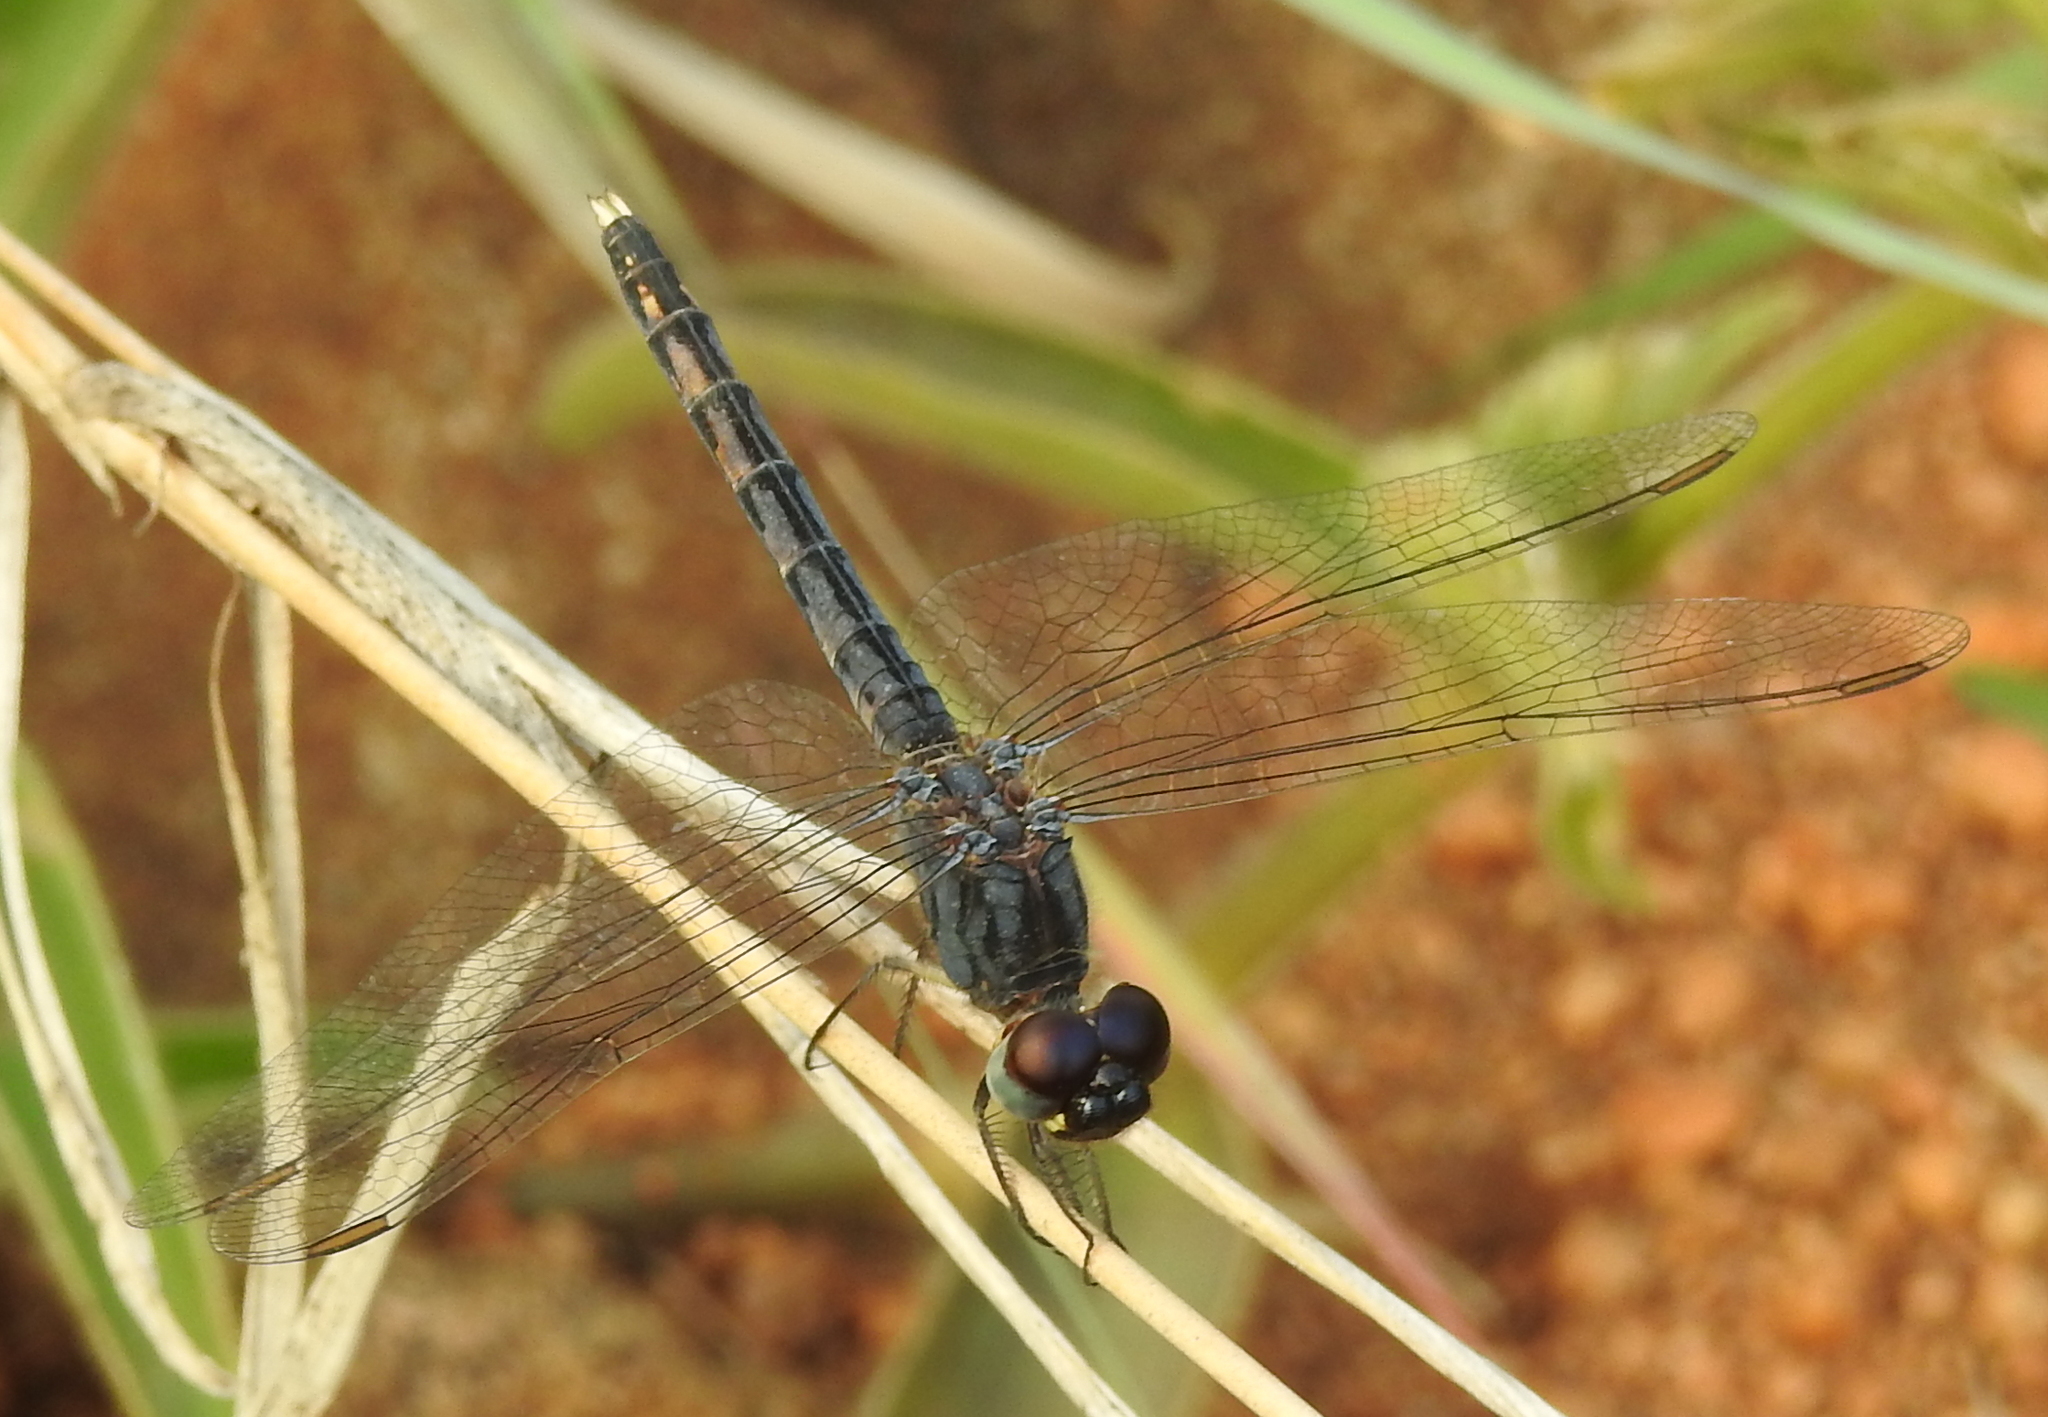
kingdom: Animalia
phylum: Arthropoda
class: Insecta
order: Odonata
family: Libellulidae
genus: Indothemis
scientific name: Indothemis carnatica
